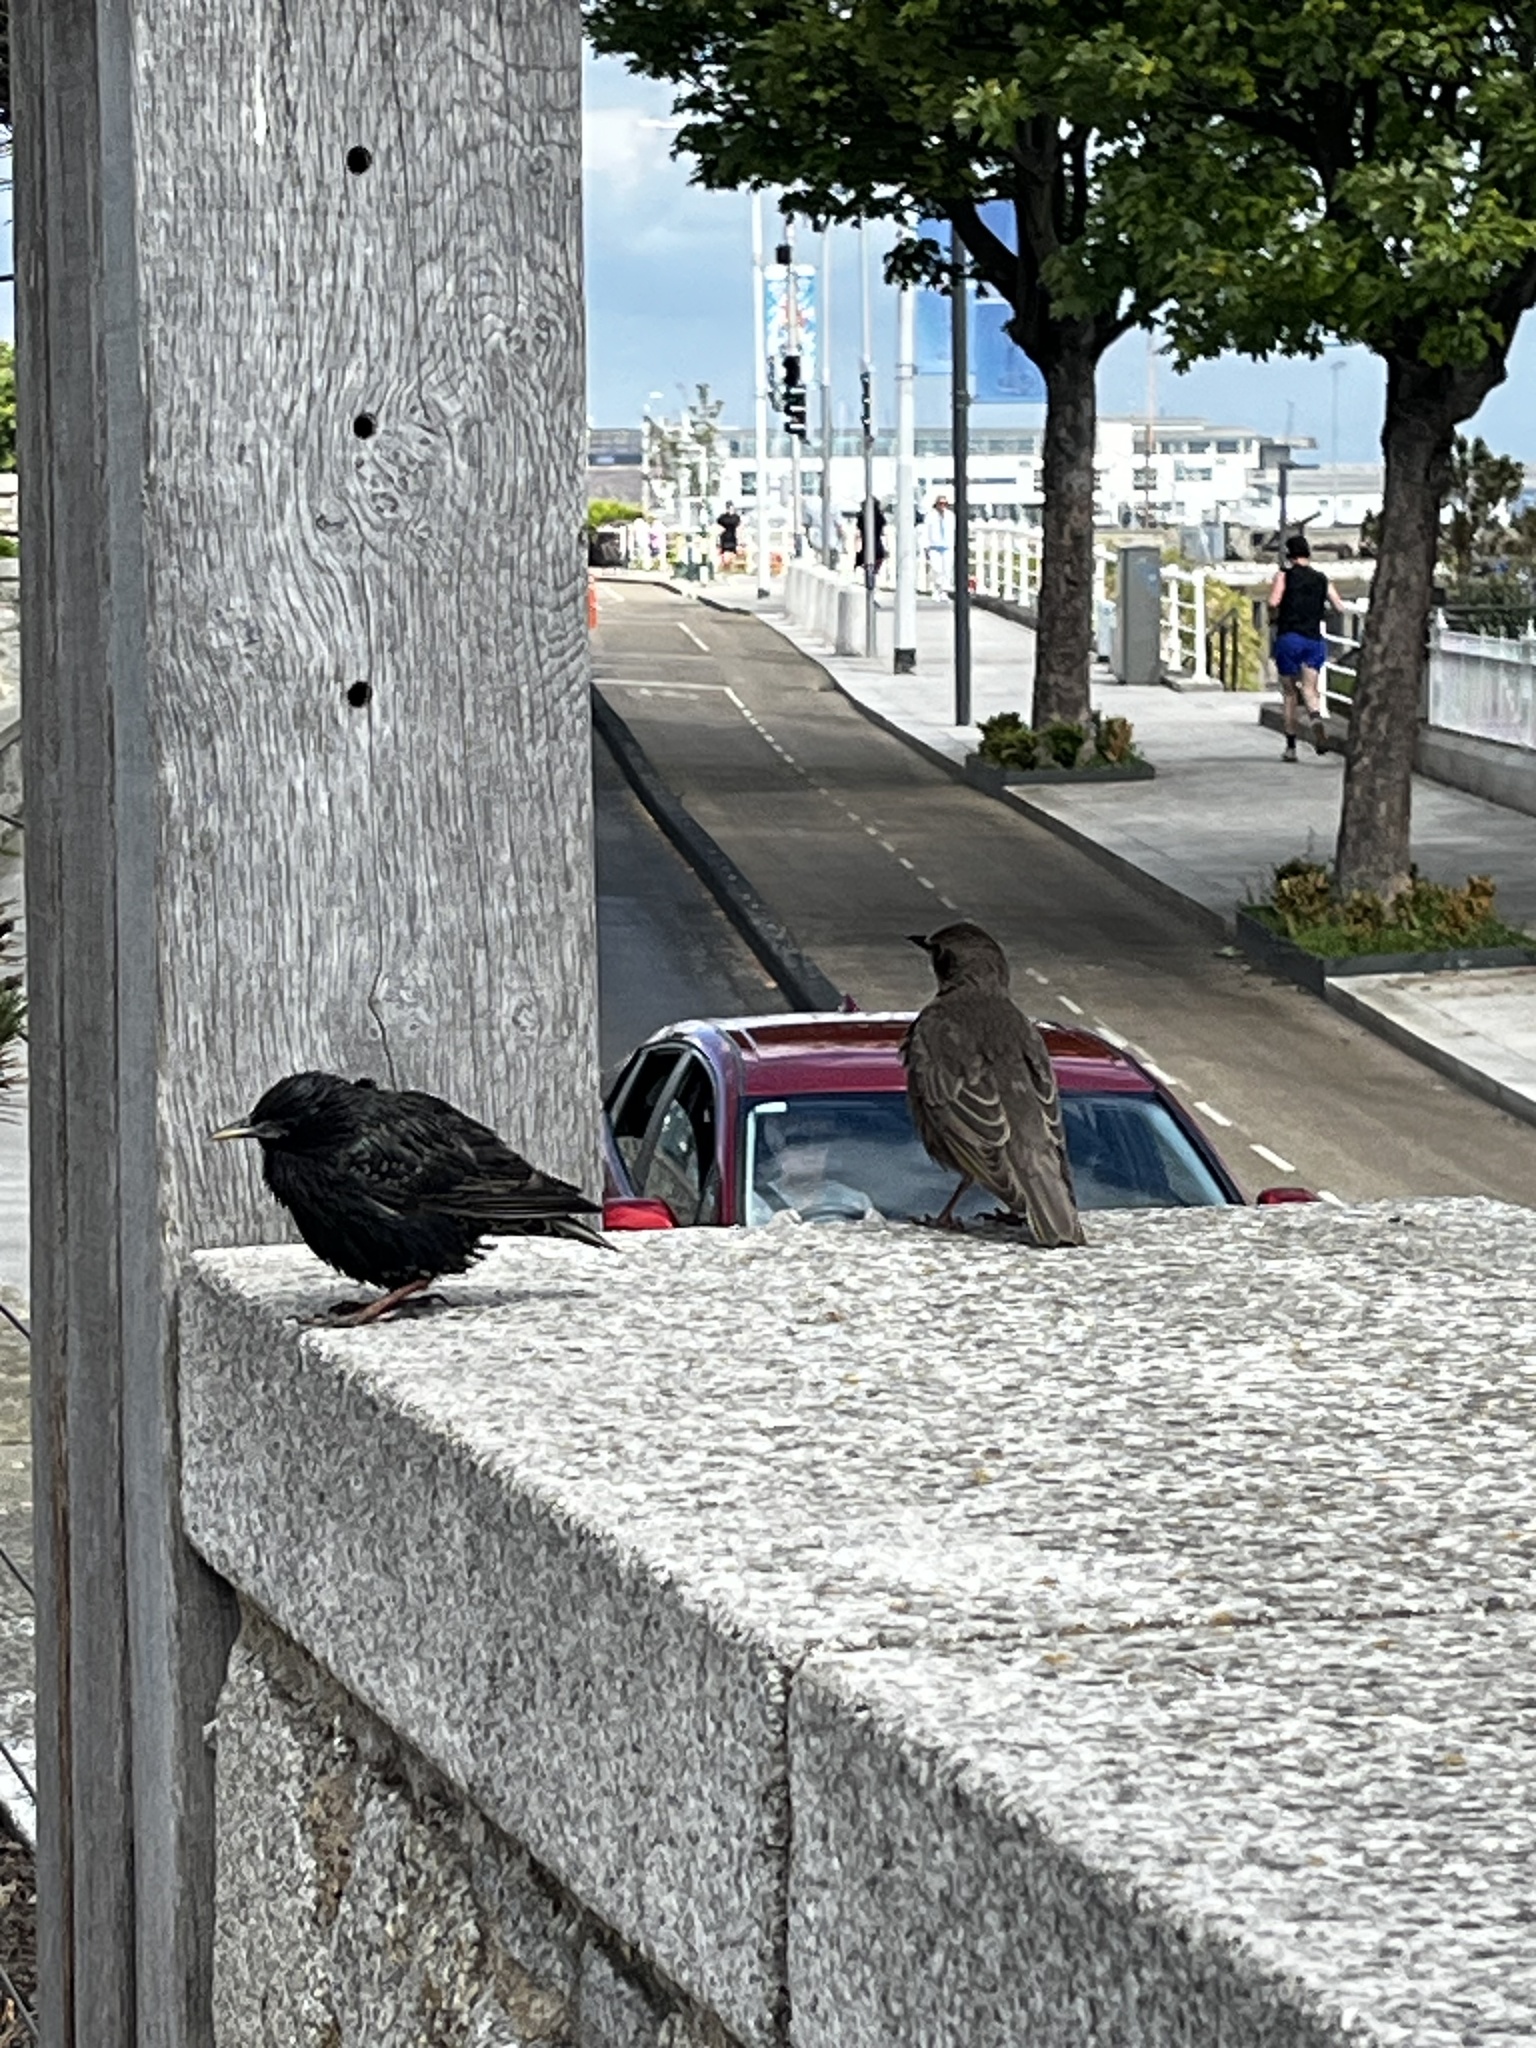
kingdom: Animalia
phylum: Chordata
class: Aves
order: Passeriformes
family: Sturnidae
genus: Sturnus
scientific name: Sturnus vulgaris
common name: Common starling
